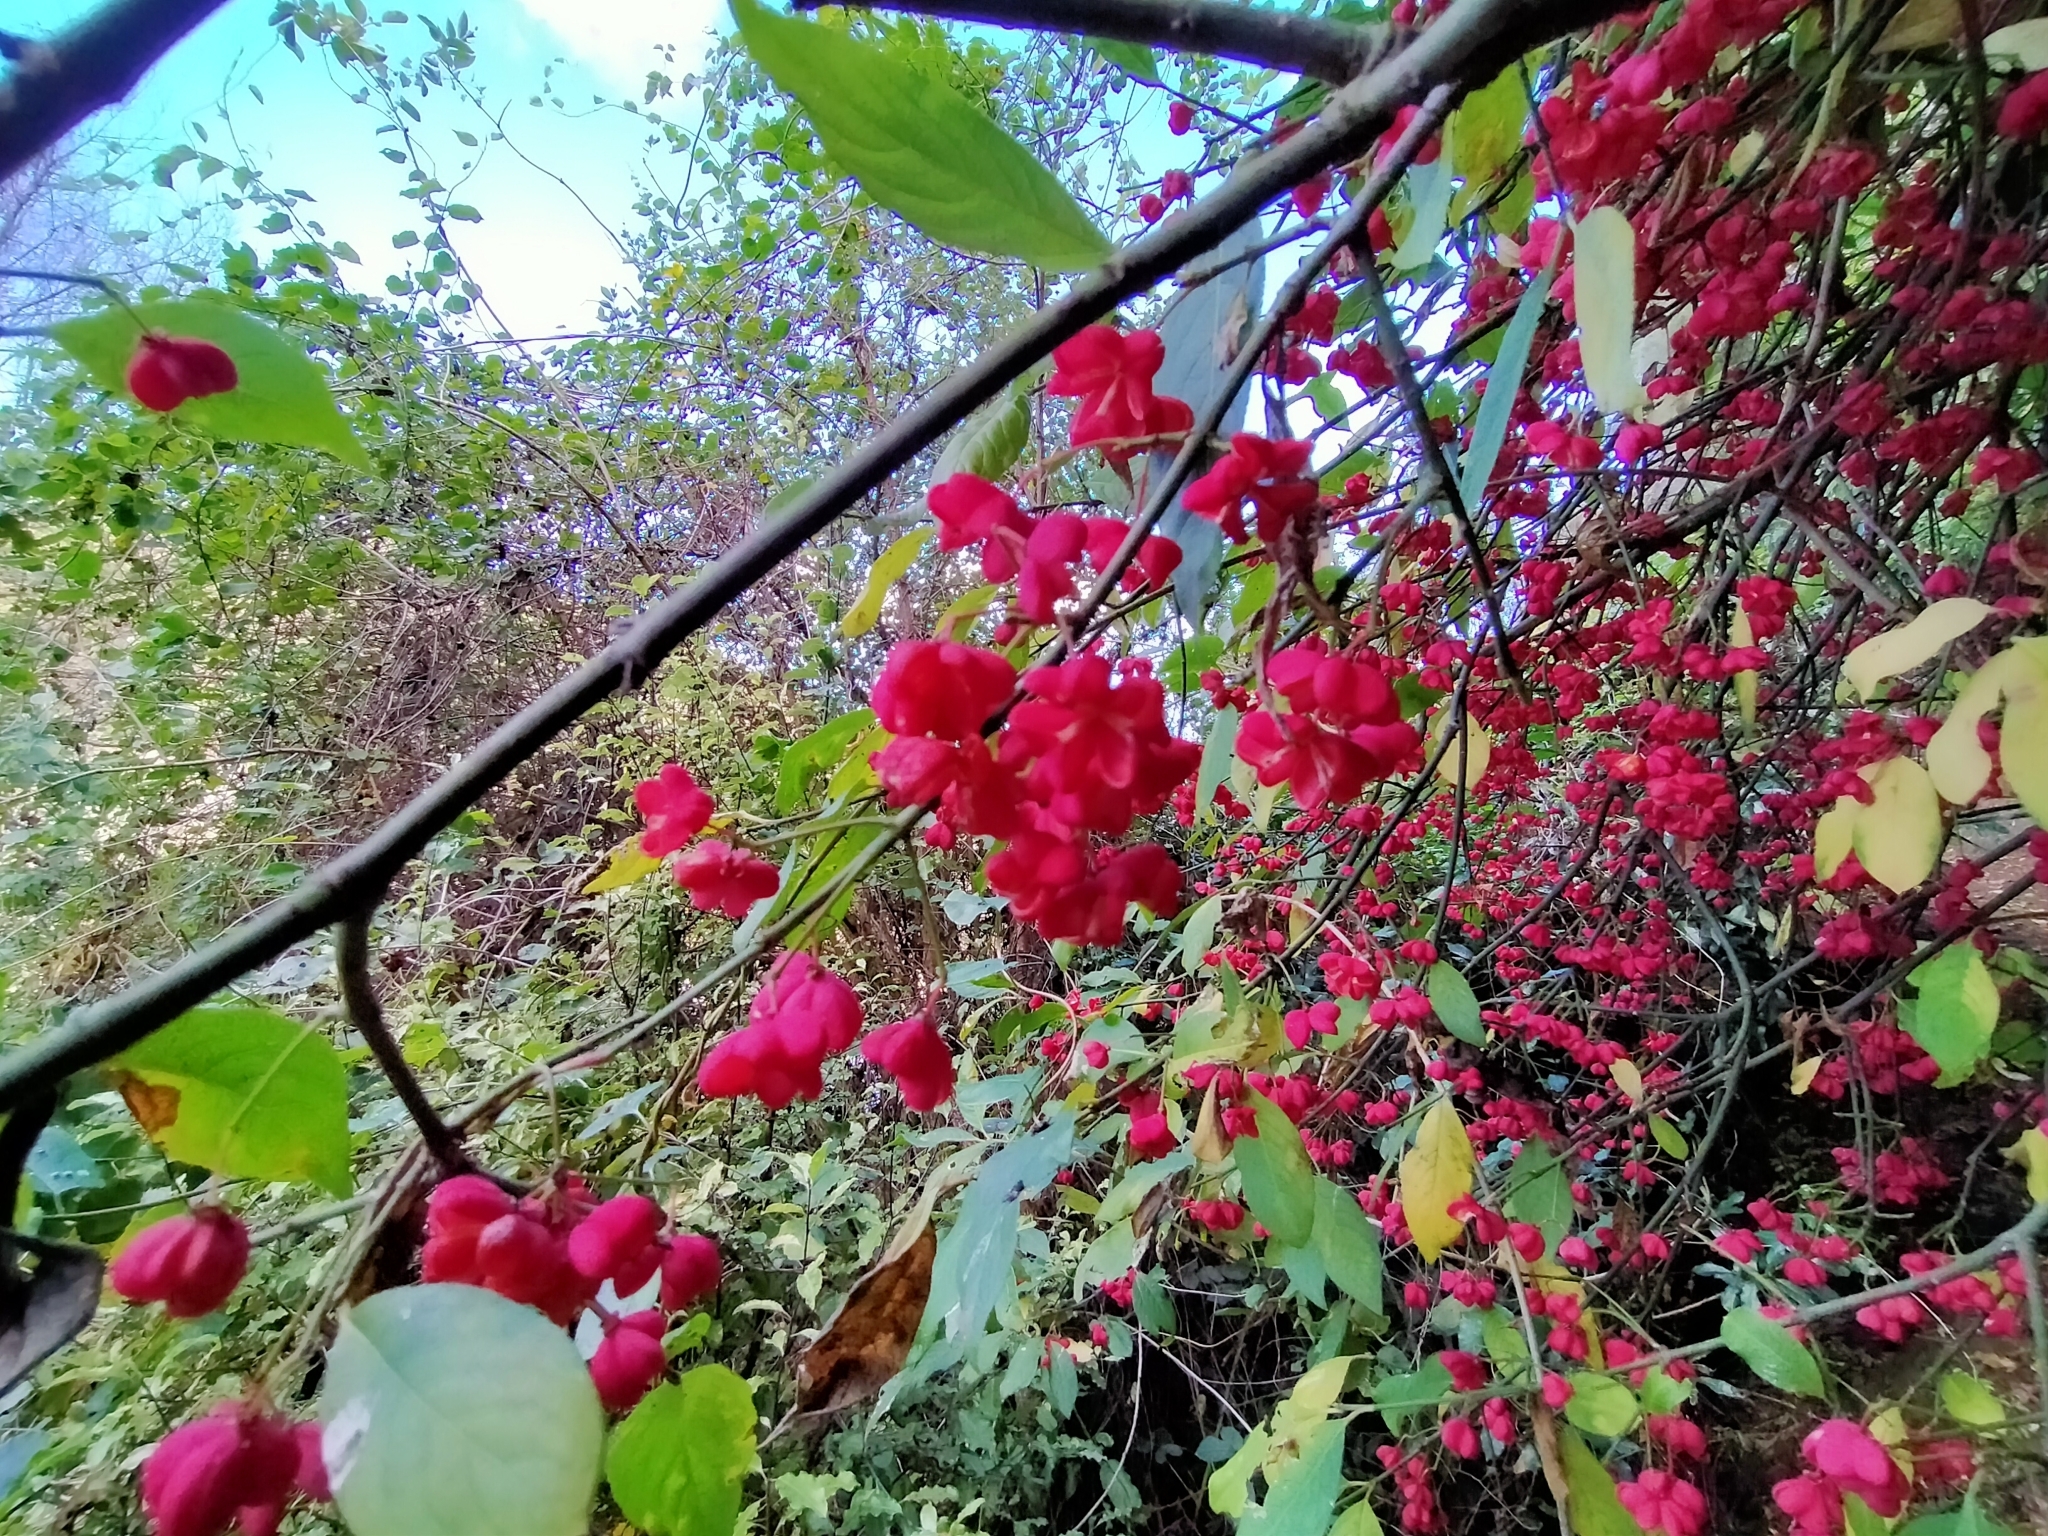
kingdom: Plantae
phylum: Tracheophyta
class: Magnoliopsida
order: Celastrales
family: Celastraceae
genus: Euonymus
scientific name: Euonymus europaeus
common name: Spindle
